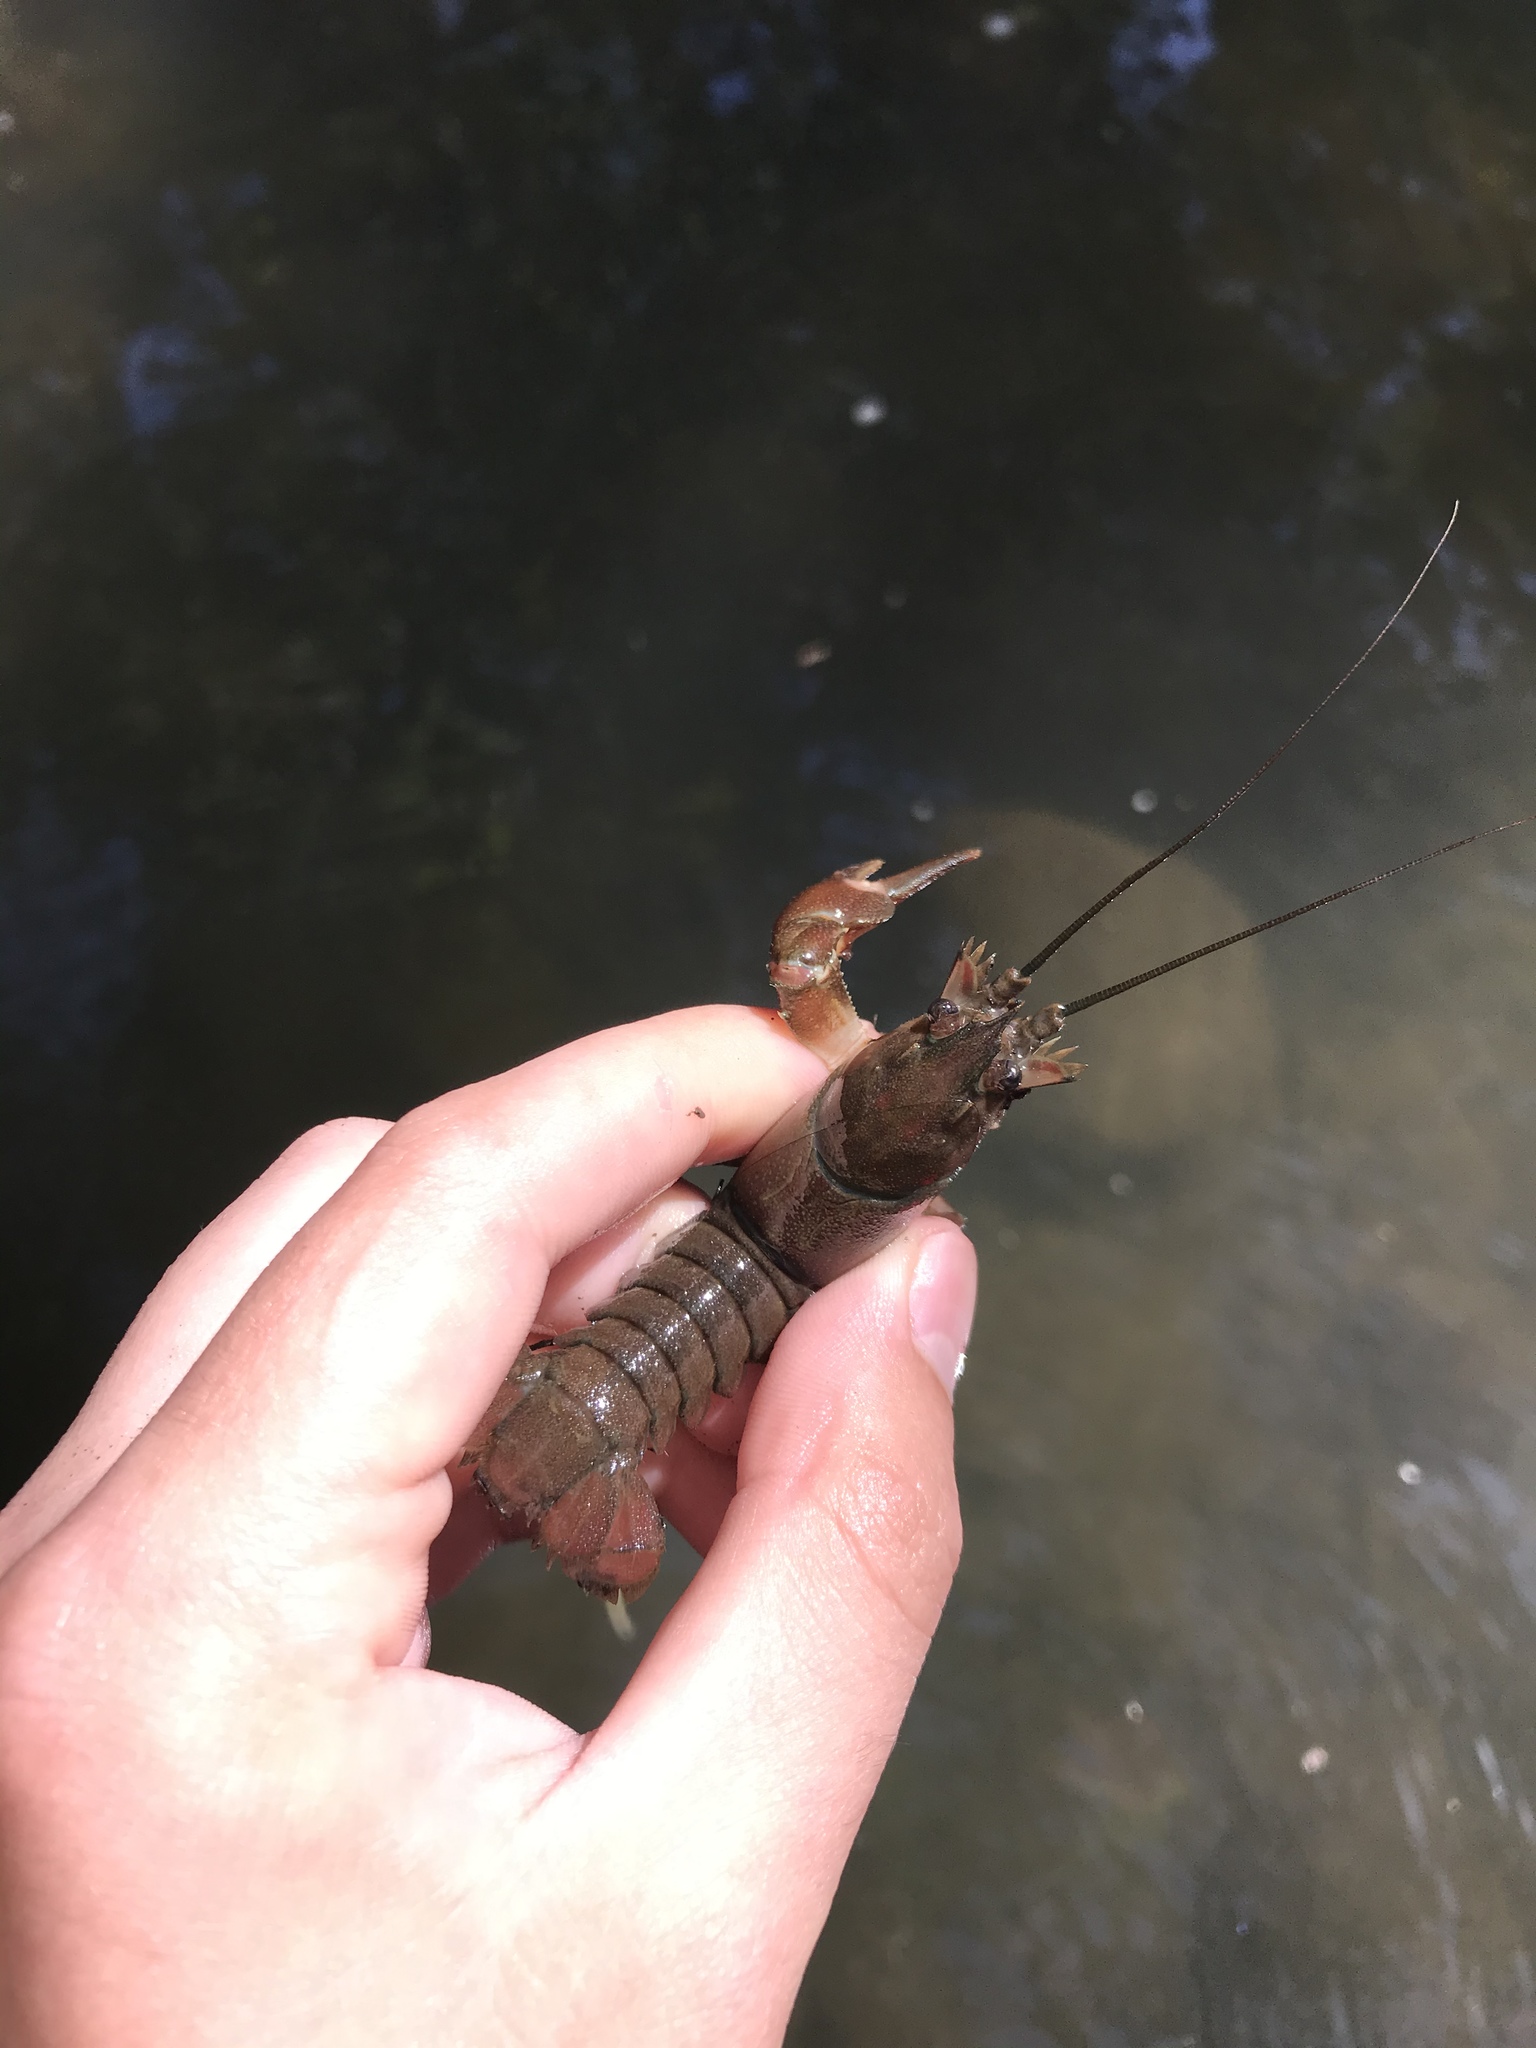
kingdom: Animalia
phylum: Arthropoda
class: Malacostraca
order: Decapoda
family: Astacidae
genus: Pacifastacus
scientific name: Pacifastacus leniusculus
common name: Signal crayfish
